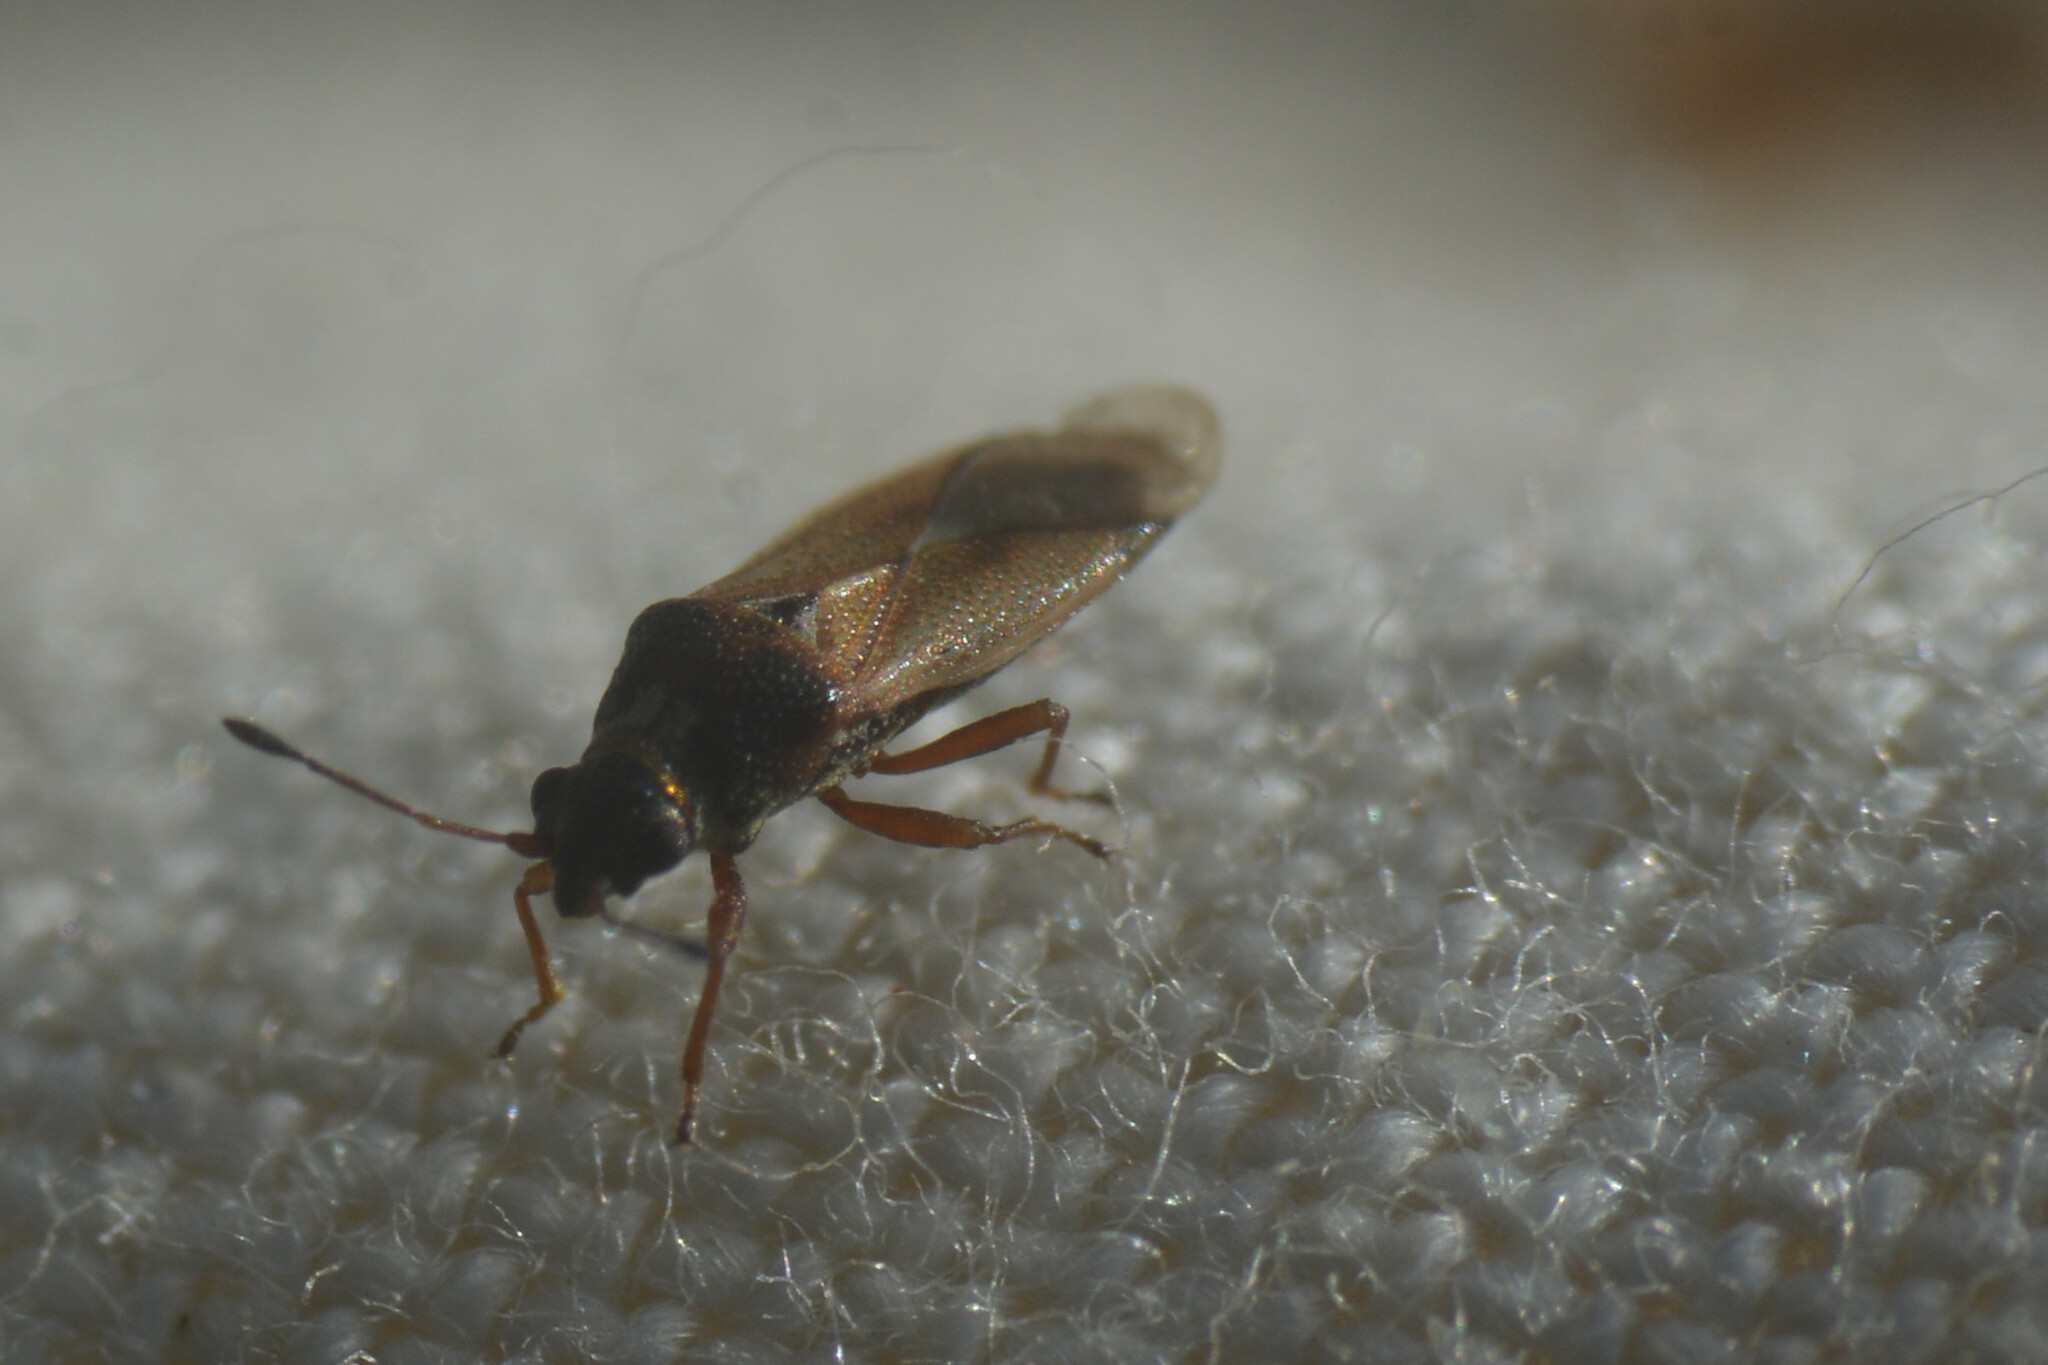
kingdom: Animalia
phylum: Arthropoda
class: Insecta
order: Hemiptera
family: Cymidae
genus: Cymus
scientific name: Cymus melanocephalus
